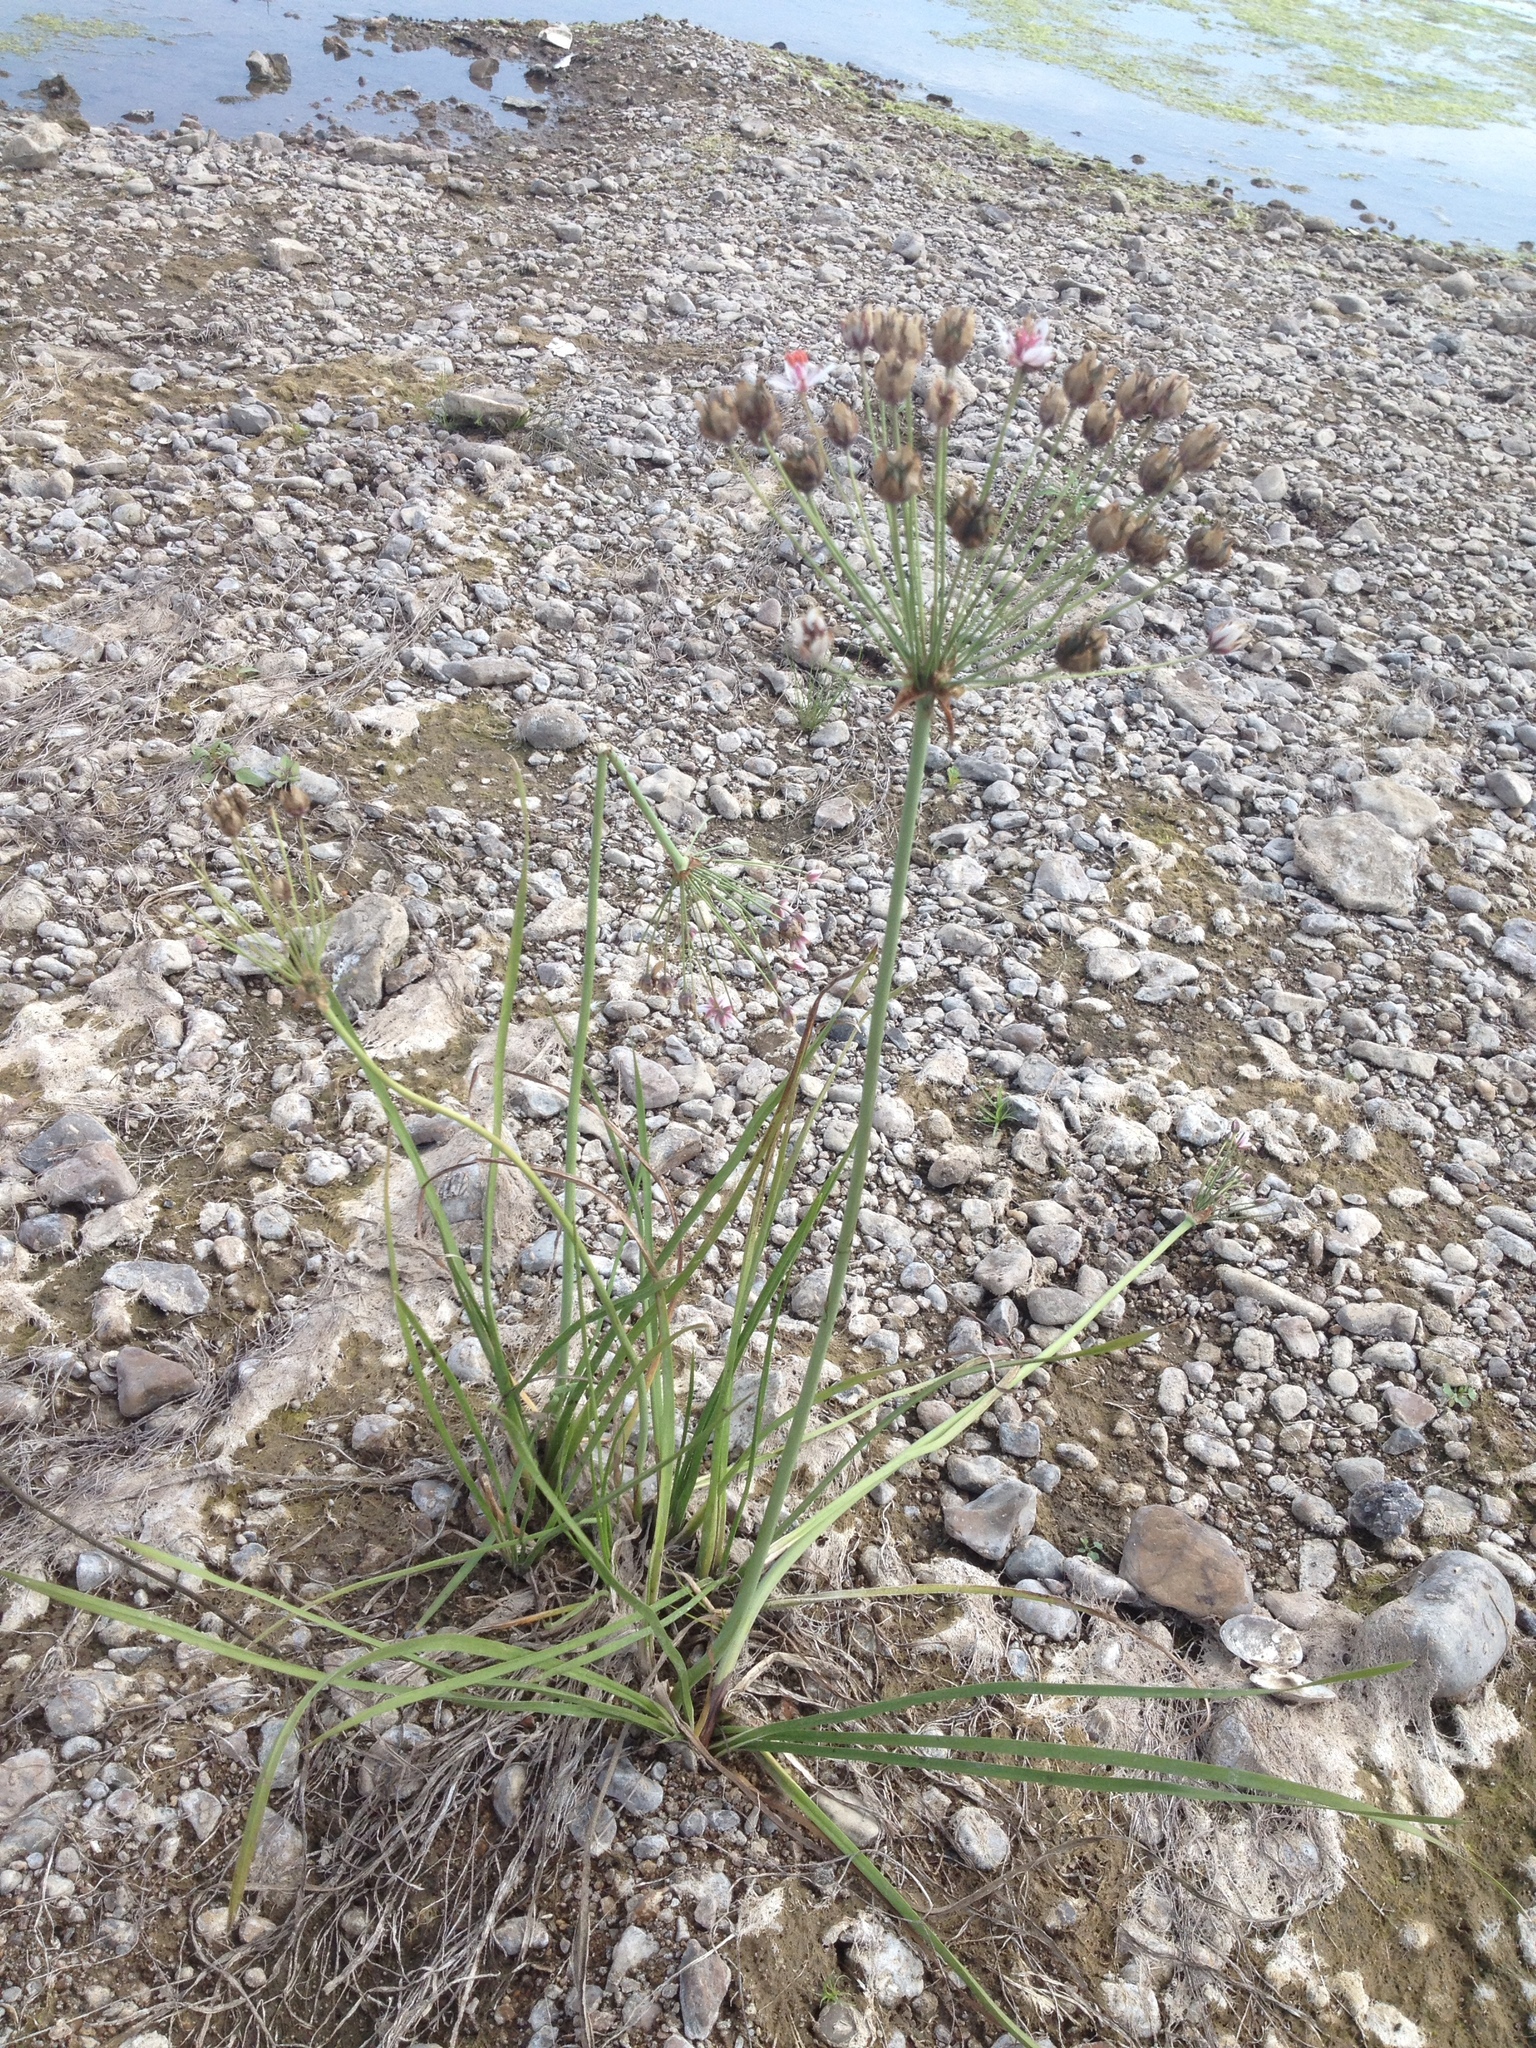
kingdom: Plantae
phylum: Tracheophyta
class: Liliopsida
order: Alismatales
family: Butomaceae
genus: Butomus
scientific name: Butomus umbellatus
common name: Flowering-rush
